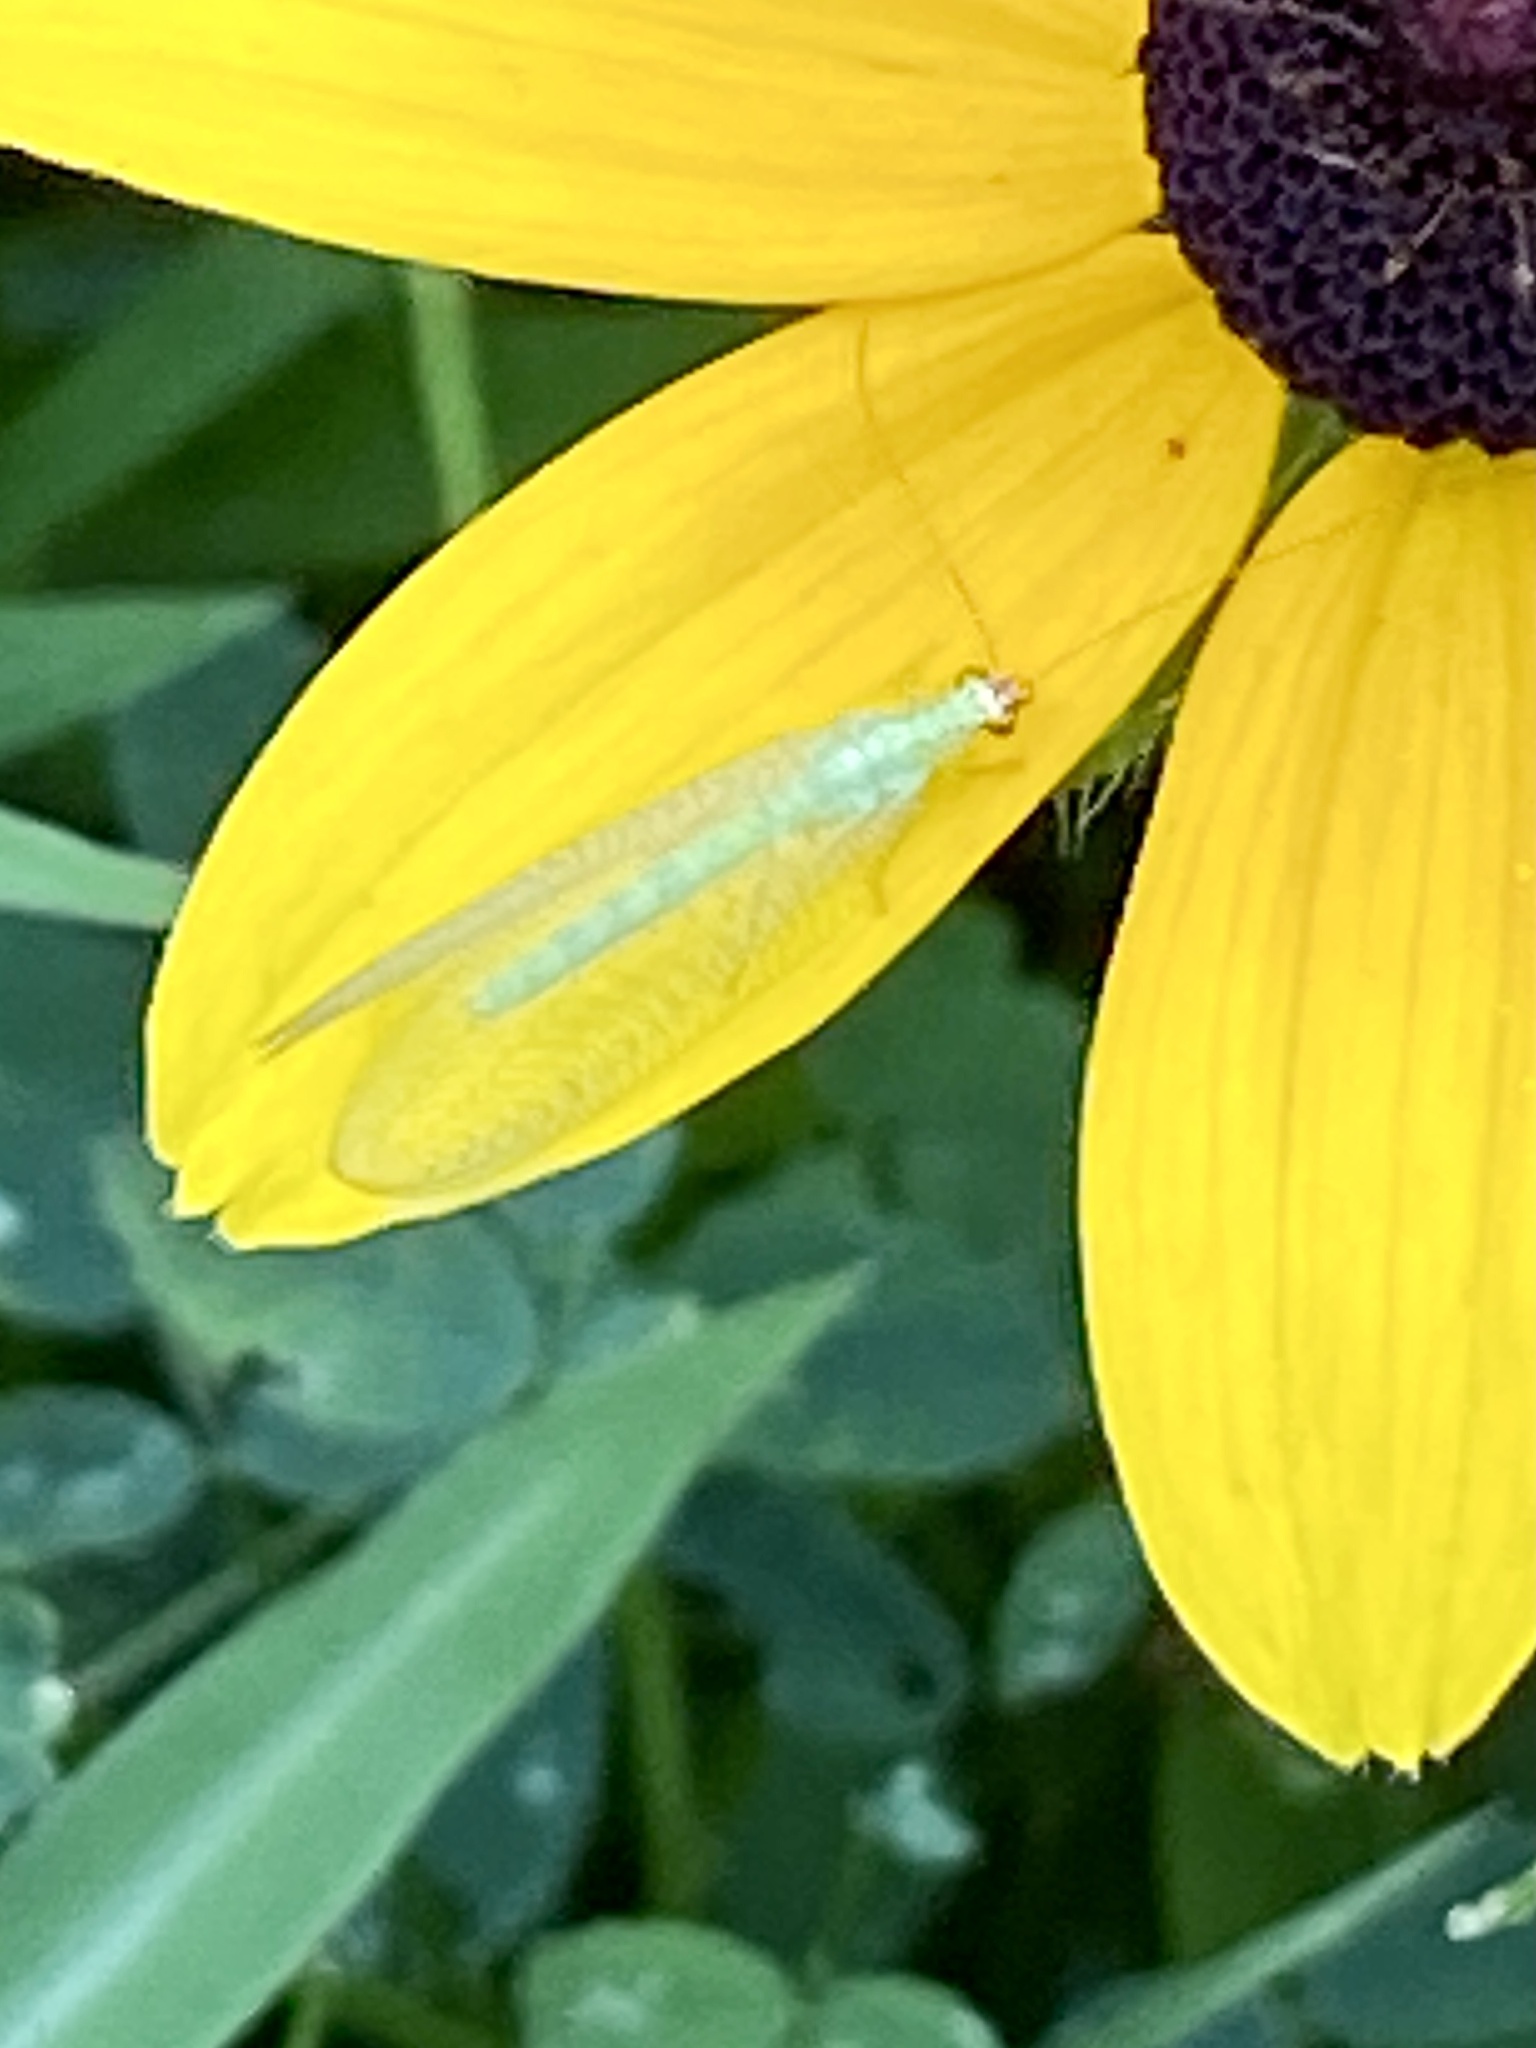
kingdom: Animalia
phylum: Arthropoda
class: Insecta
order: Neuroptera
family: Chrysopidae
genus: Chrysopa
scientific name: Chrysopa oculata
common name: Golden-eyed lacewing
